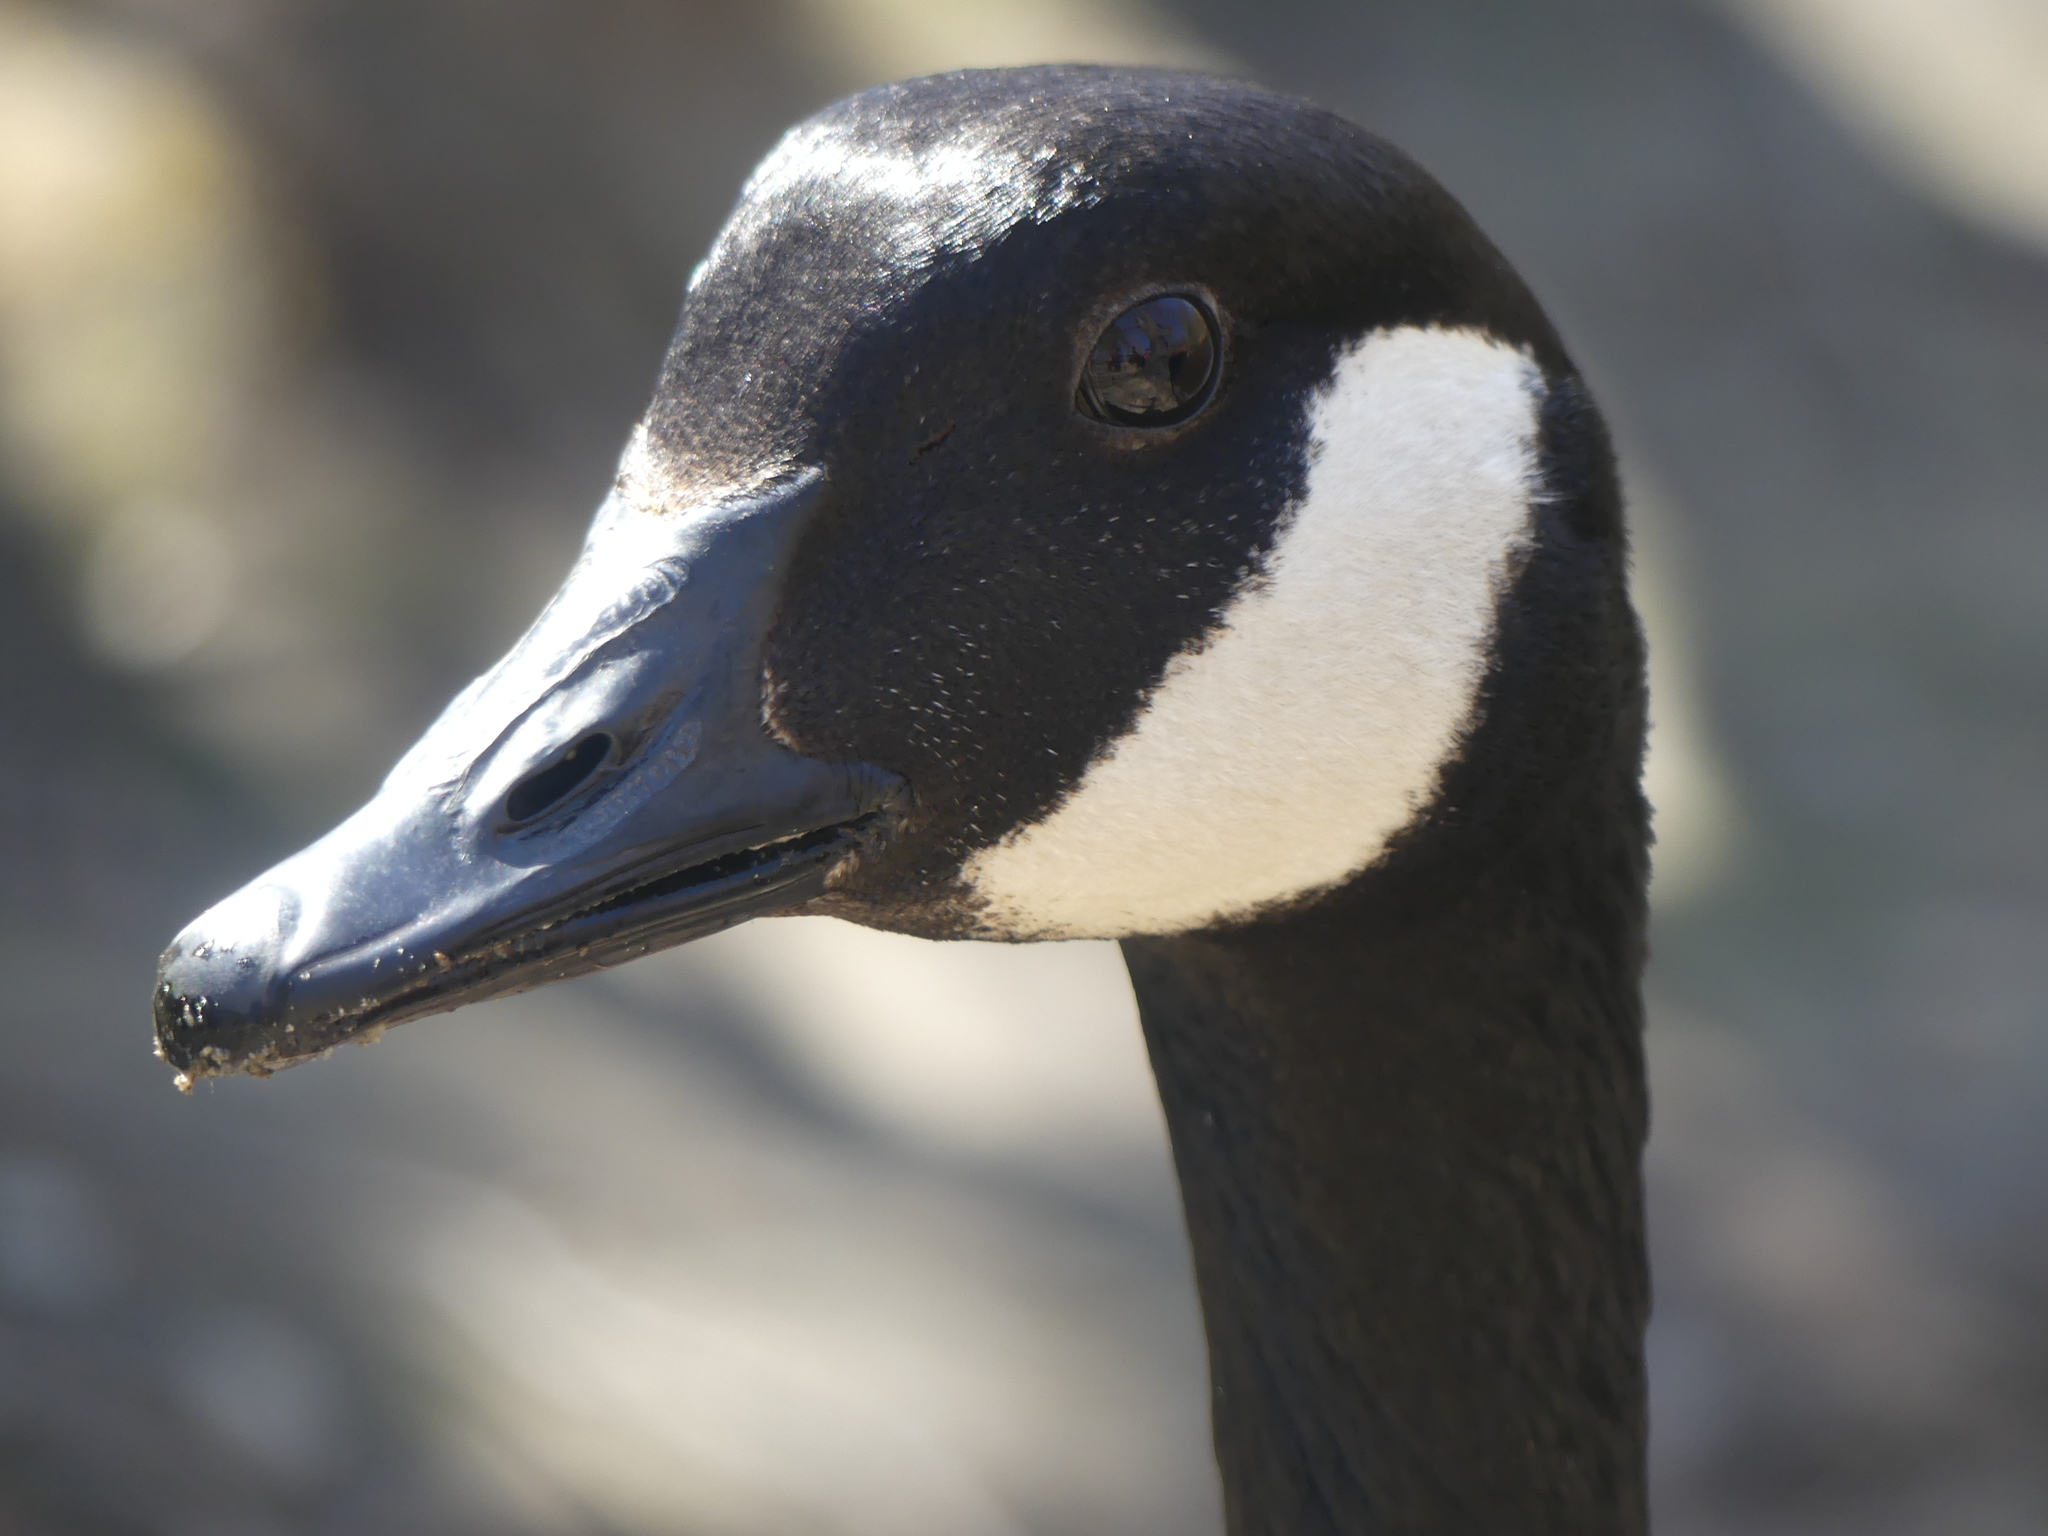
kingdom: Animalia
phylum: Chordata
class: Aves
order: Anseriformes
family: Anatidae
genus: Branta
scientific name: Branta canadensis
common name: Canada goose
